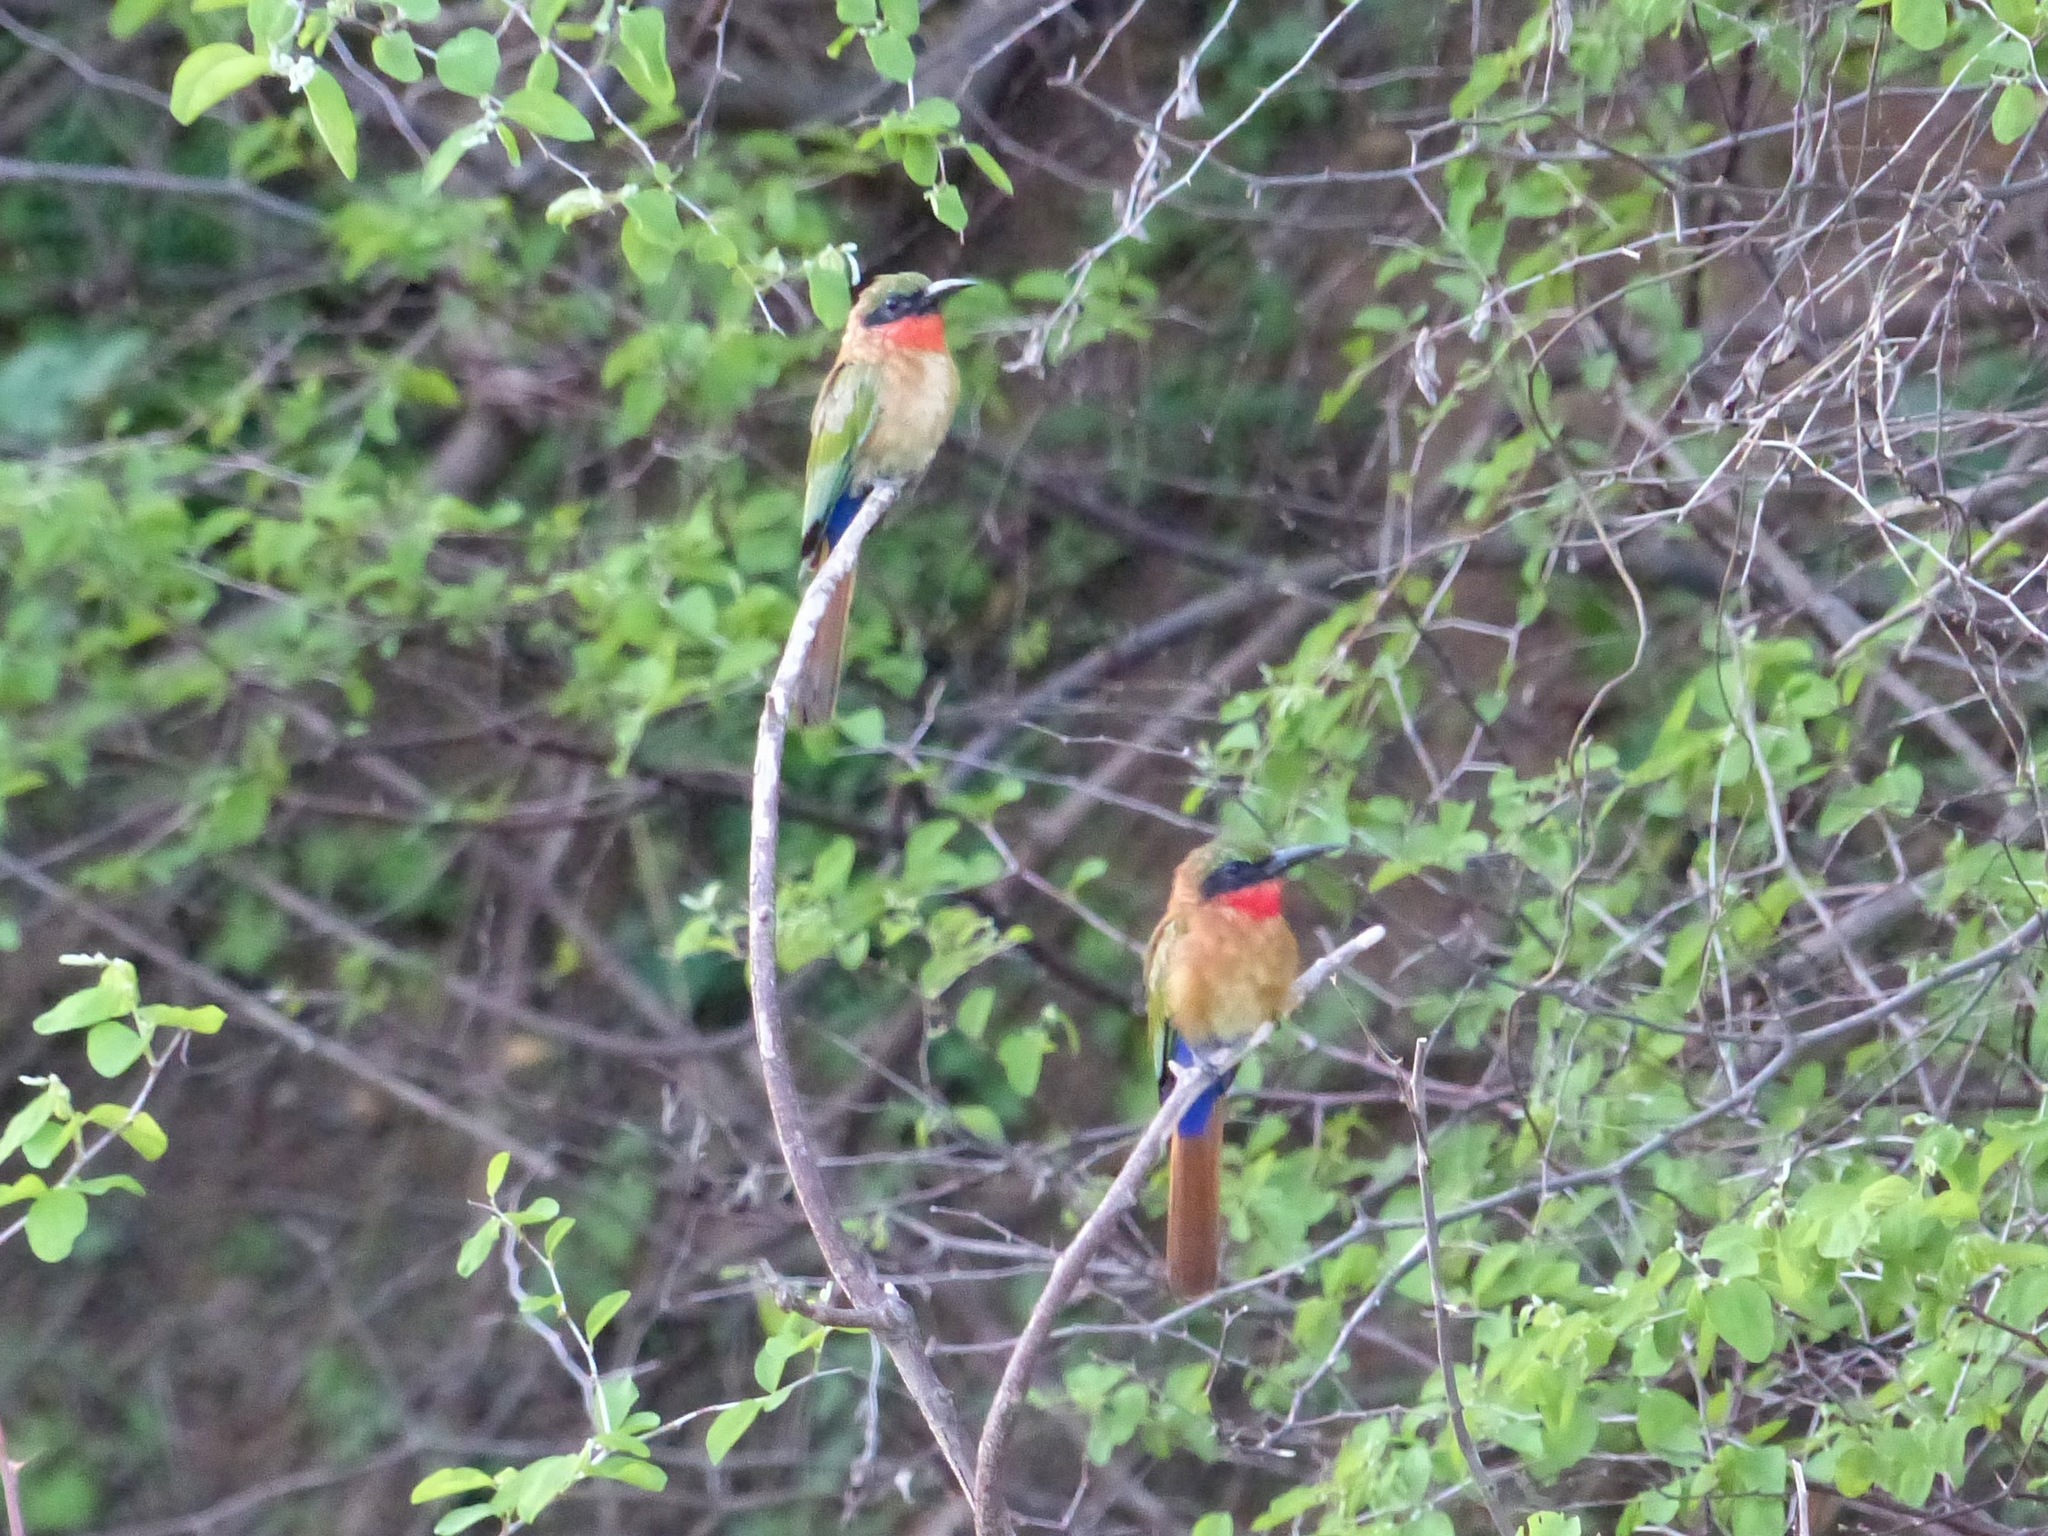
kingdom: Animalia
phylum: Chordata
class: Aves
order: Coraciiformes
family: Meropidae
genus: Merops
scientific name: Merops bulocki
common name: Red-throated bee-eater
